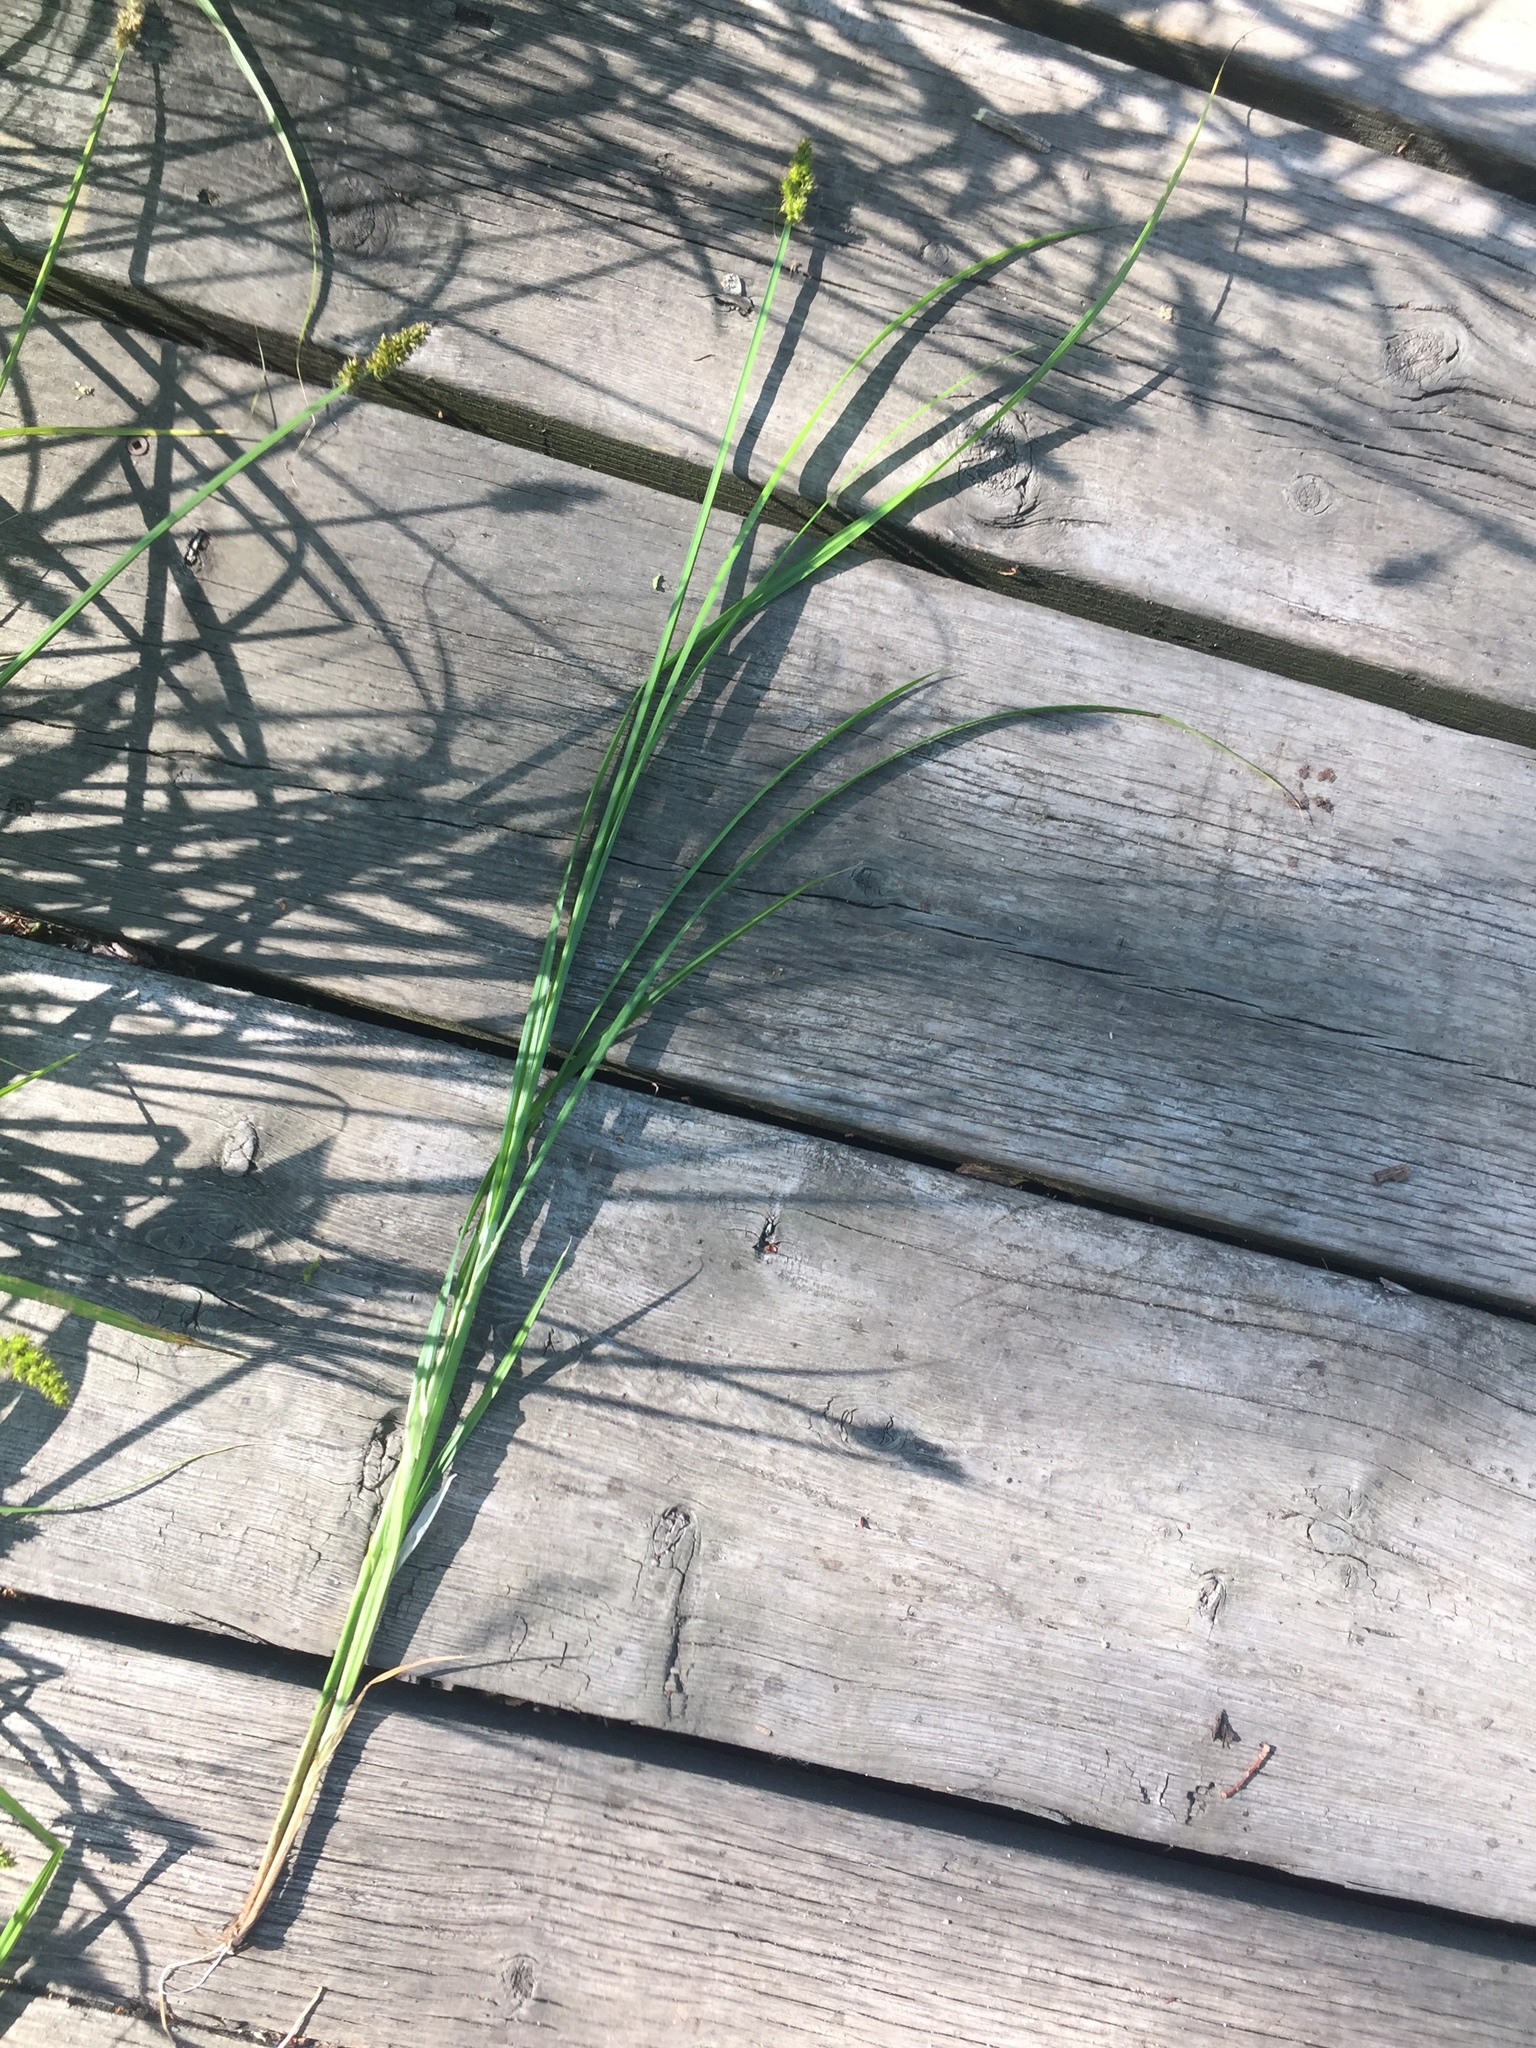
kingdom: Plantae
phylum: Tracheophyta
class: Liliopsida
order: Poales
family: Cyperaceae
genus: Carex
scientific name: Carex stipata
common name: Awl-fruited sedge
